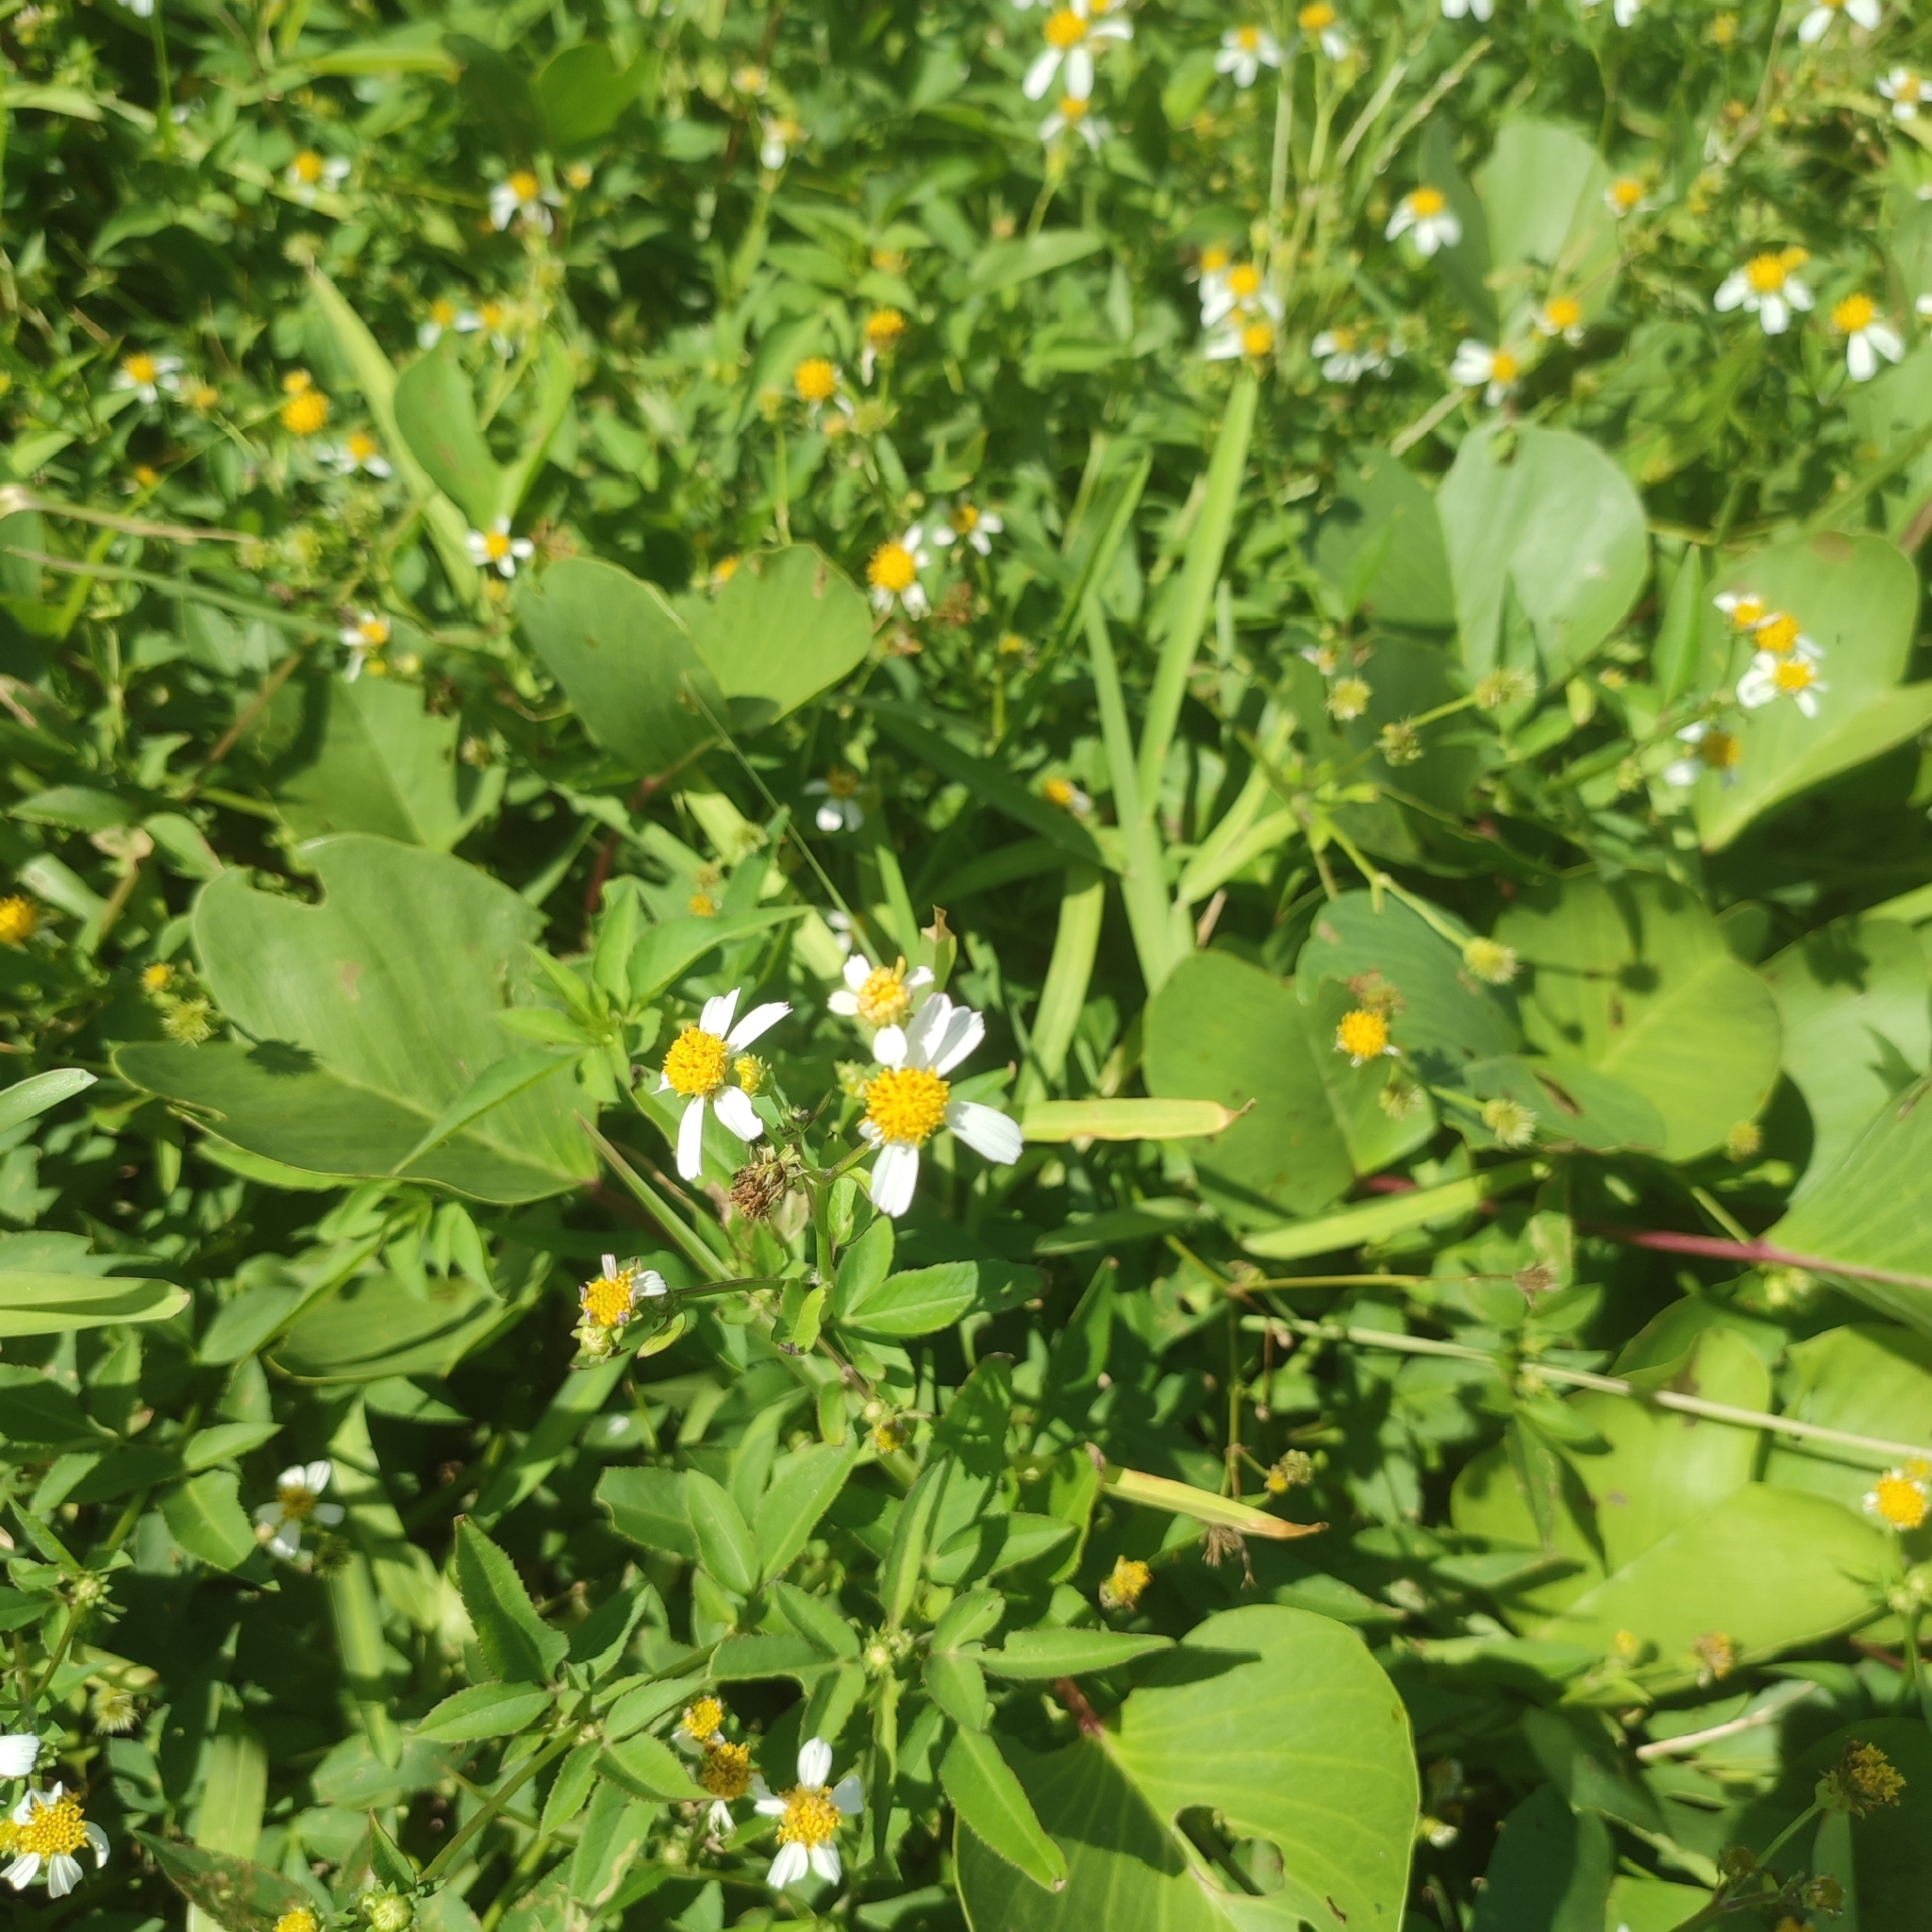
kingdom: Plantae
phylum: Tracheophyta
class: Magnoliopsida
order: Asterales
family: Asteraceae
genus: Bidens
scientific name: Bidens alba
